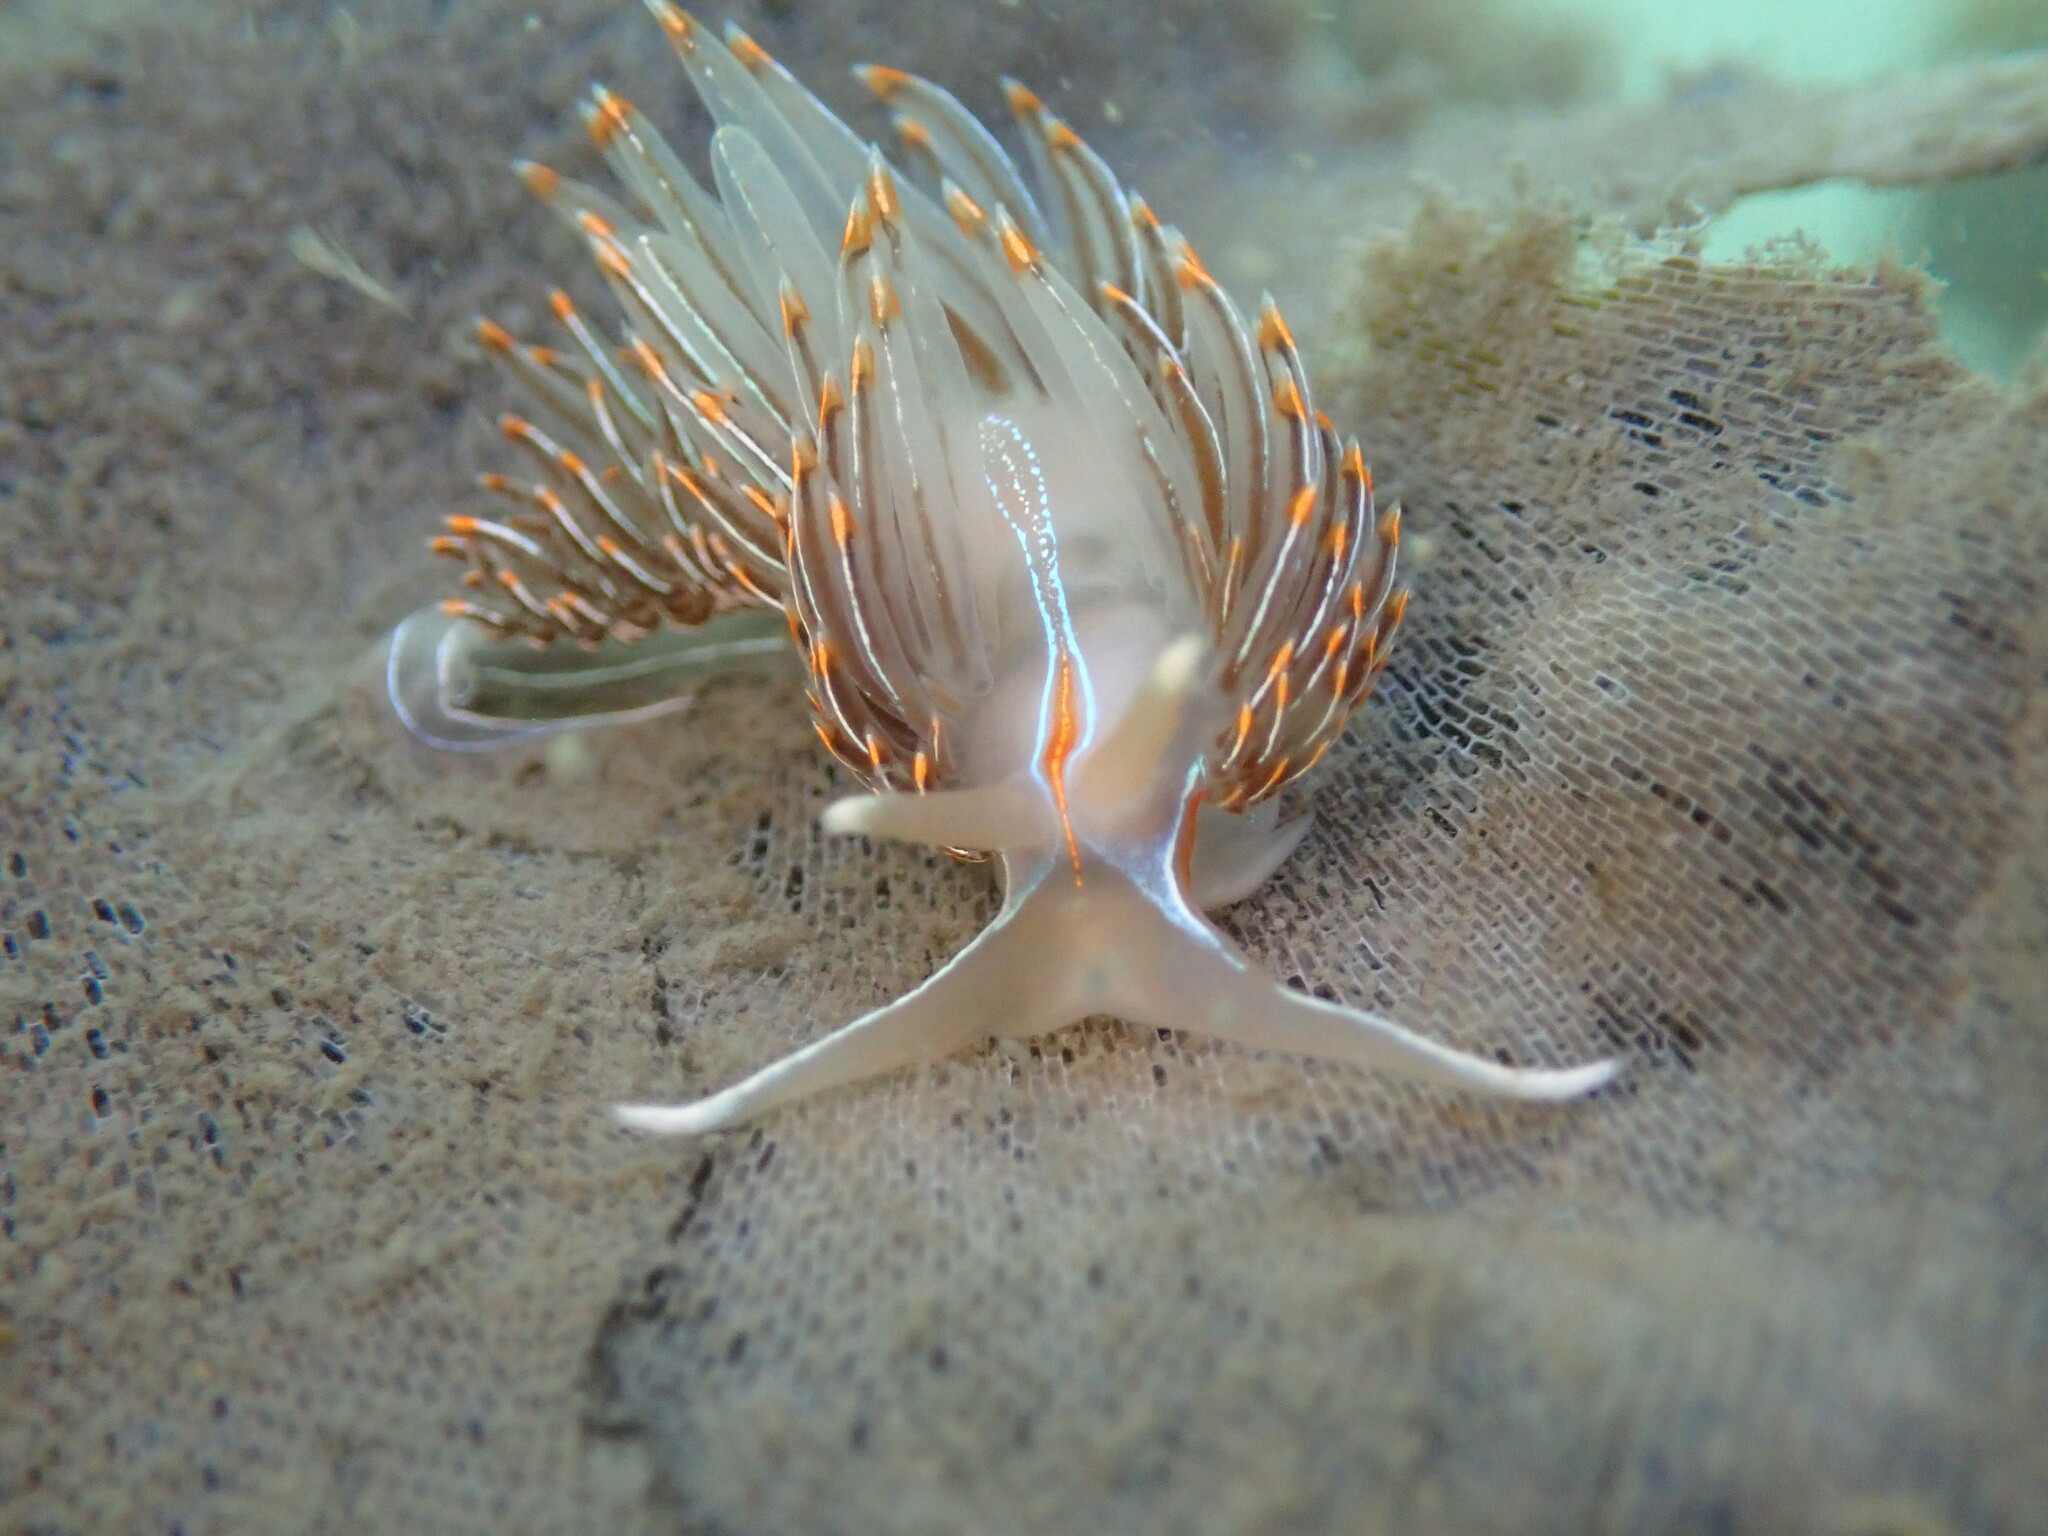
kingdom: Animalia
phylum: Mollusca
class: Gastropoda
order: Nudibranchia
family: Myrrhinidae
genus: Hermissenda
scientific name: Hermissenda crassicornis
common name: Hermissenda
